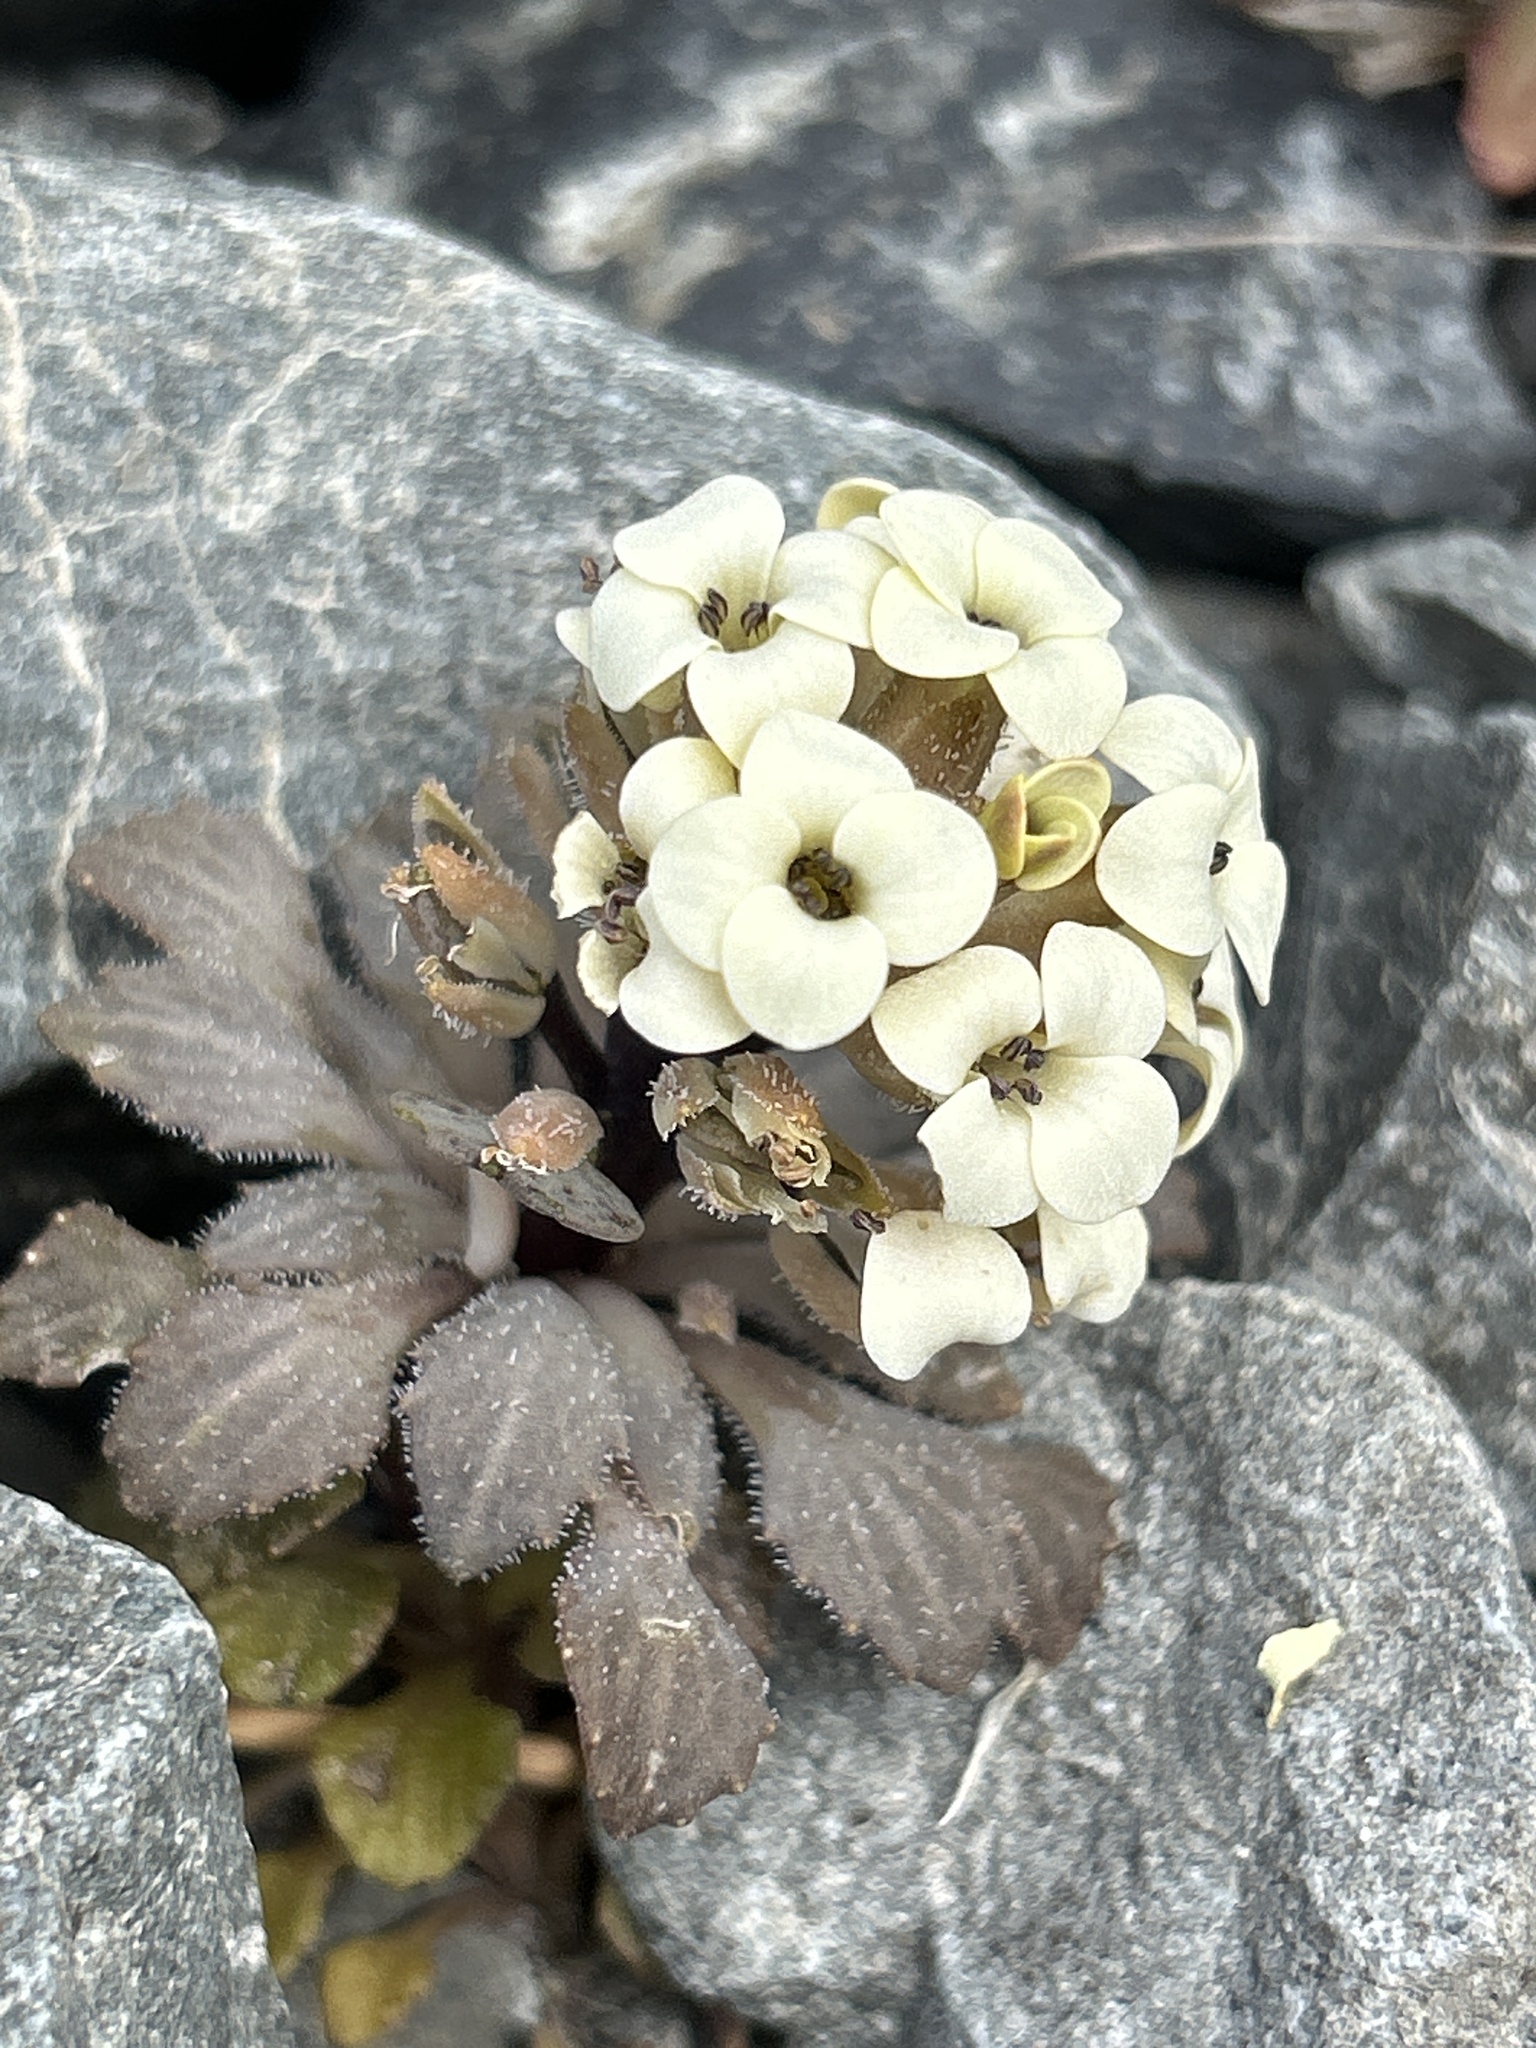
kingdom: Plantae
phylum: Tracheophyta
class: Magnoliopsida
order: Brassicales
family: Brassicaceae
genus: Notothlaspi
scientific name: Notothlaspi rosulatum
